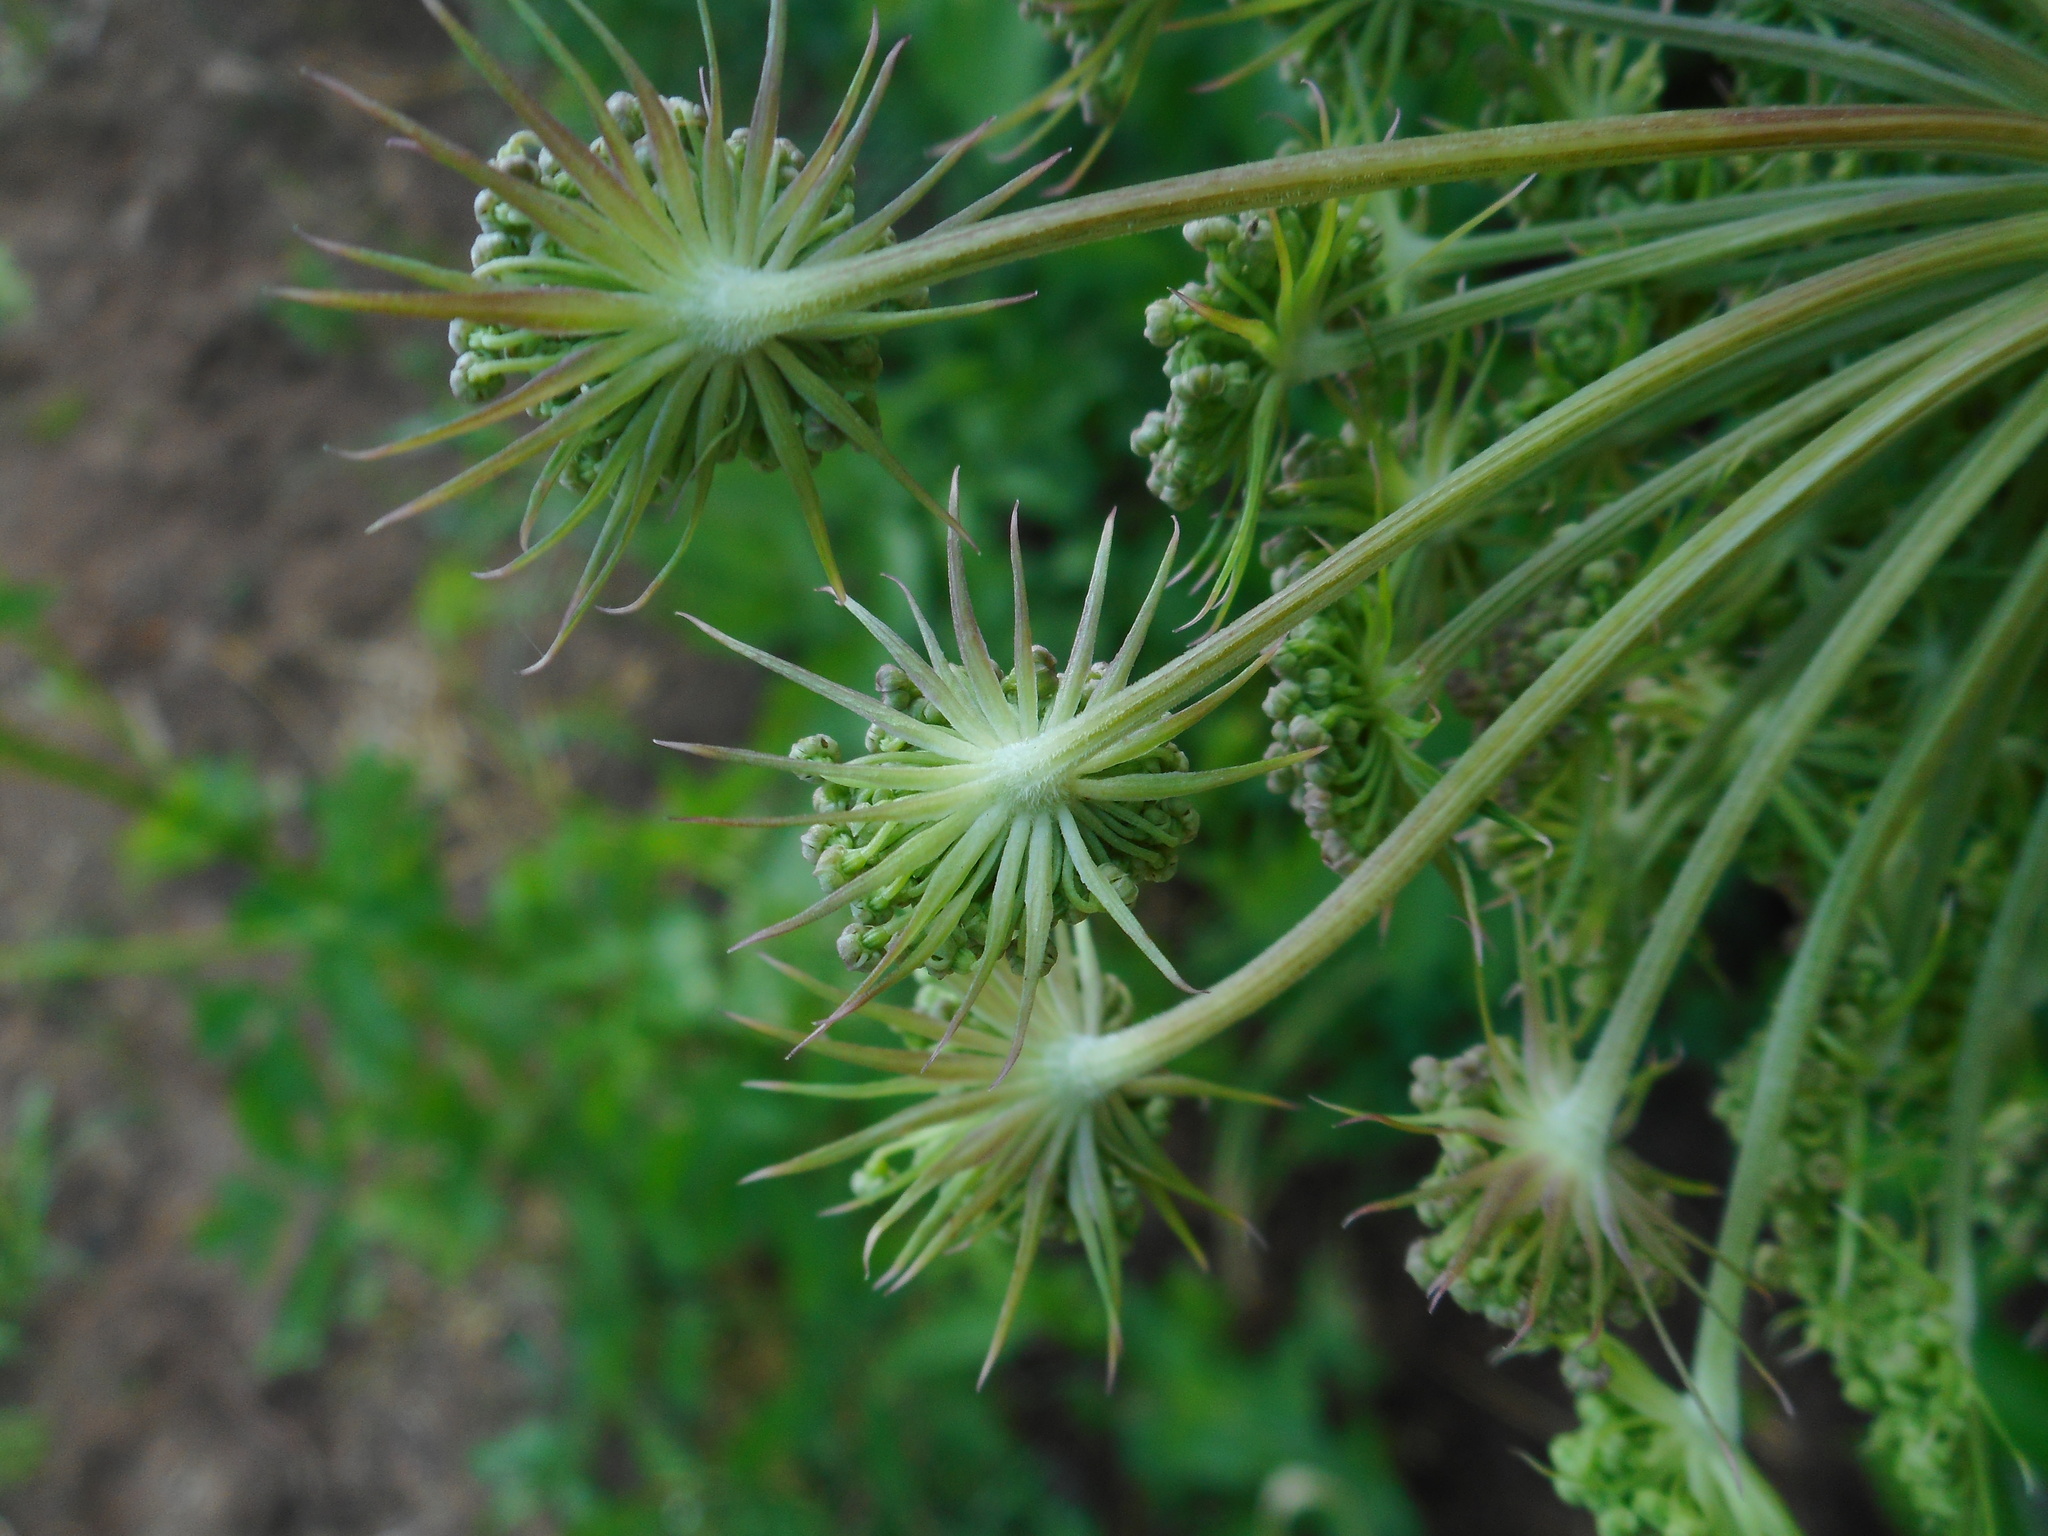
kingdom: Plantae
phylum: Tracheophyta
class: Magnoliopsida
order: Apiales
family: Apiaceae
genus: Angelica
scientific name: Angelica sylvestris
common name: Wild angelica
